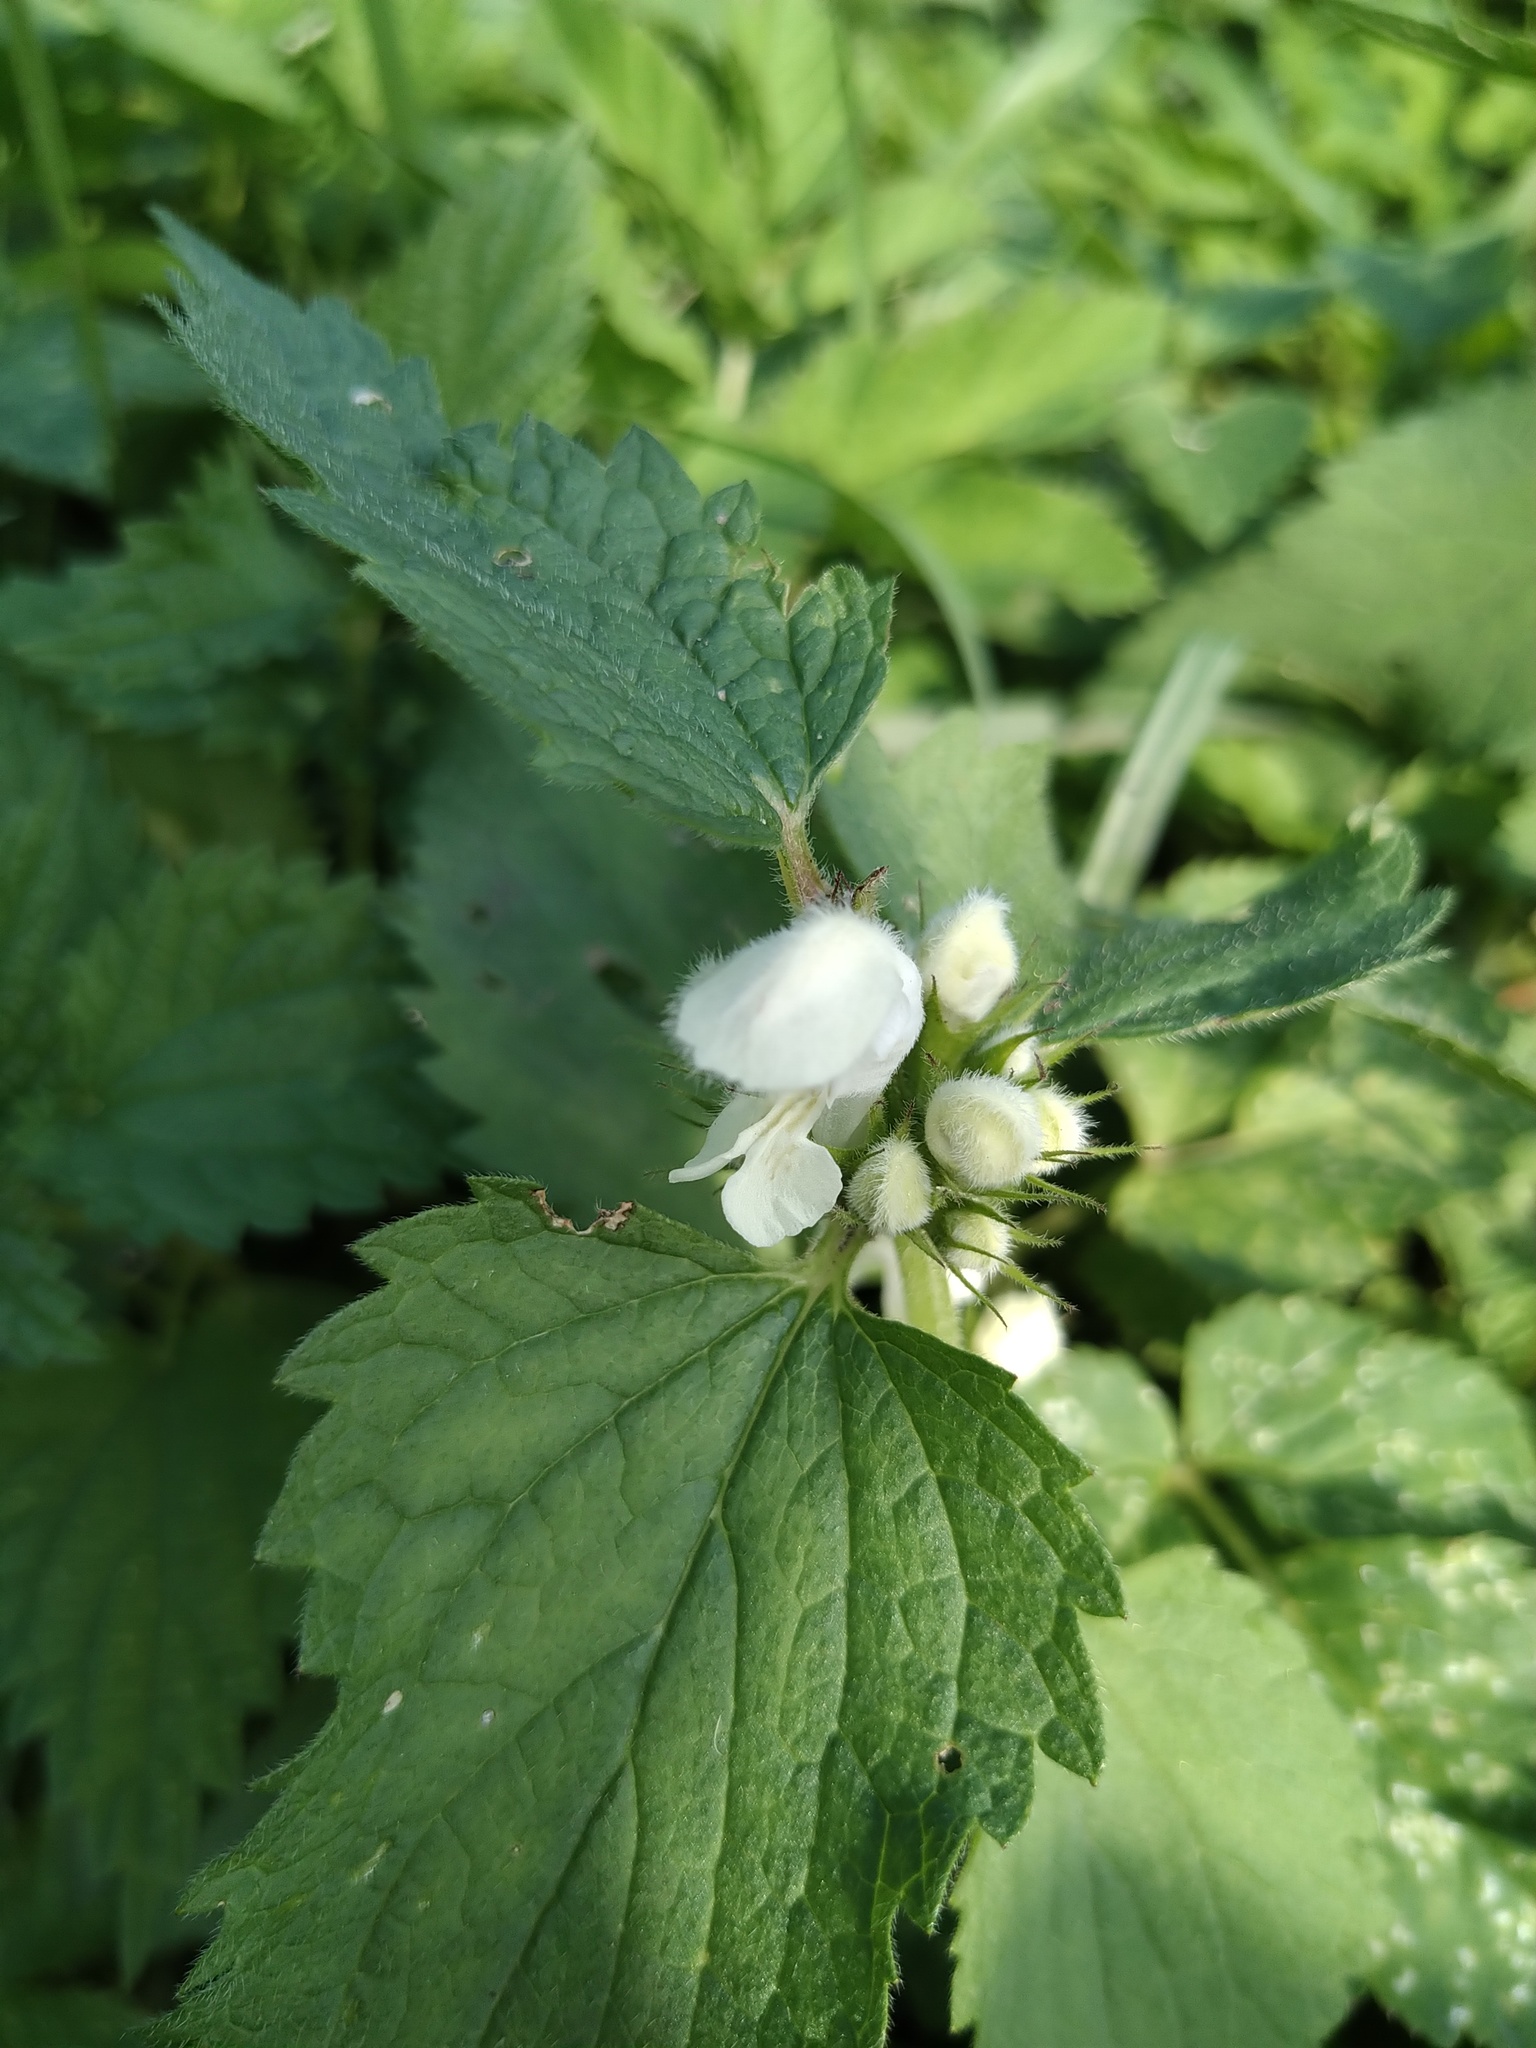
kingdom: Plantae
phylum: Tracheophyta
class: Magnoliopsida
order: Lamiales
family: Lamiaceae
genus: Lamium
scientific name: Lamium album
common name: White dead-nettle
